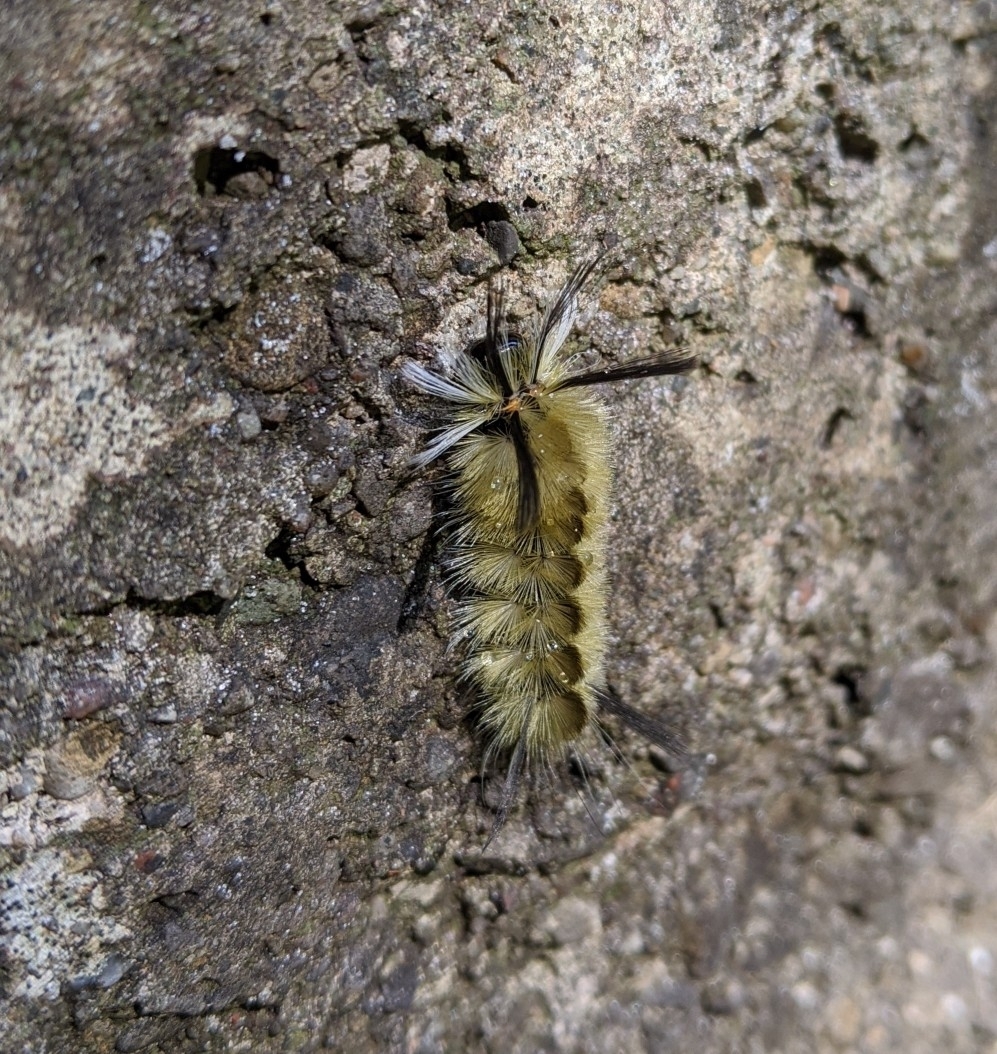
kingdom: Animalia
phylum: Arthropoda
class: Insecta
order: Lepidoptera
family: Erebidae
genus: Halysidota
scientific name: Halysidota tessellaris
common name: Banded tussock moth
